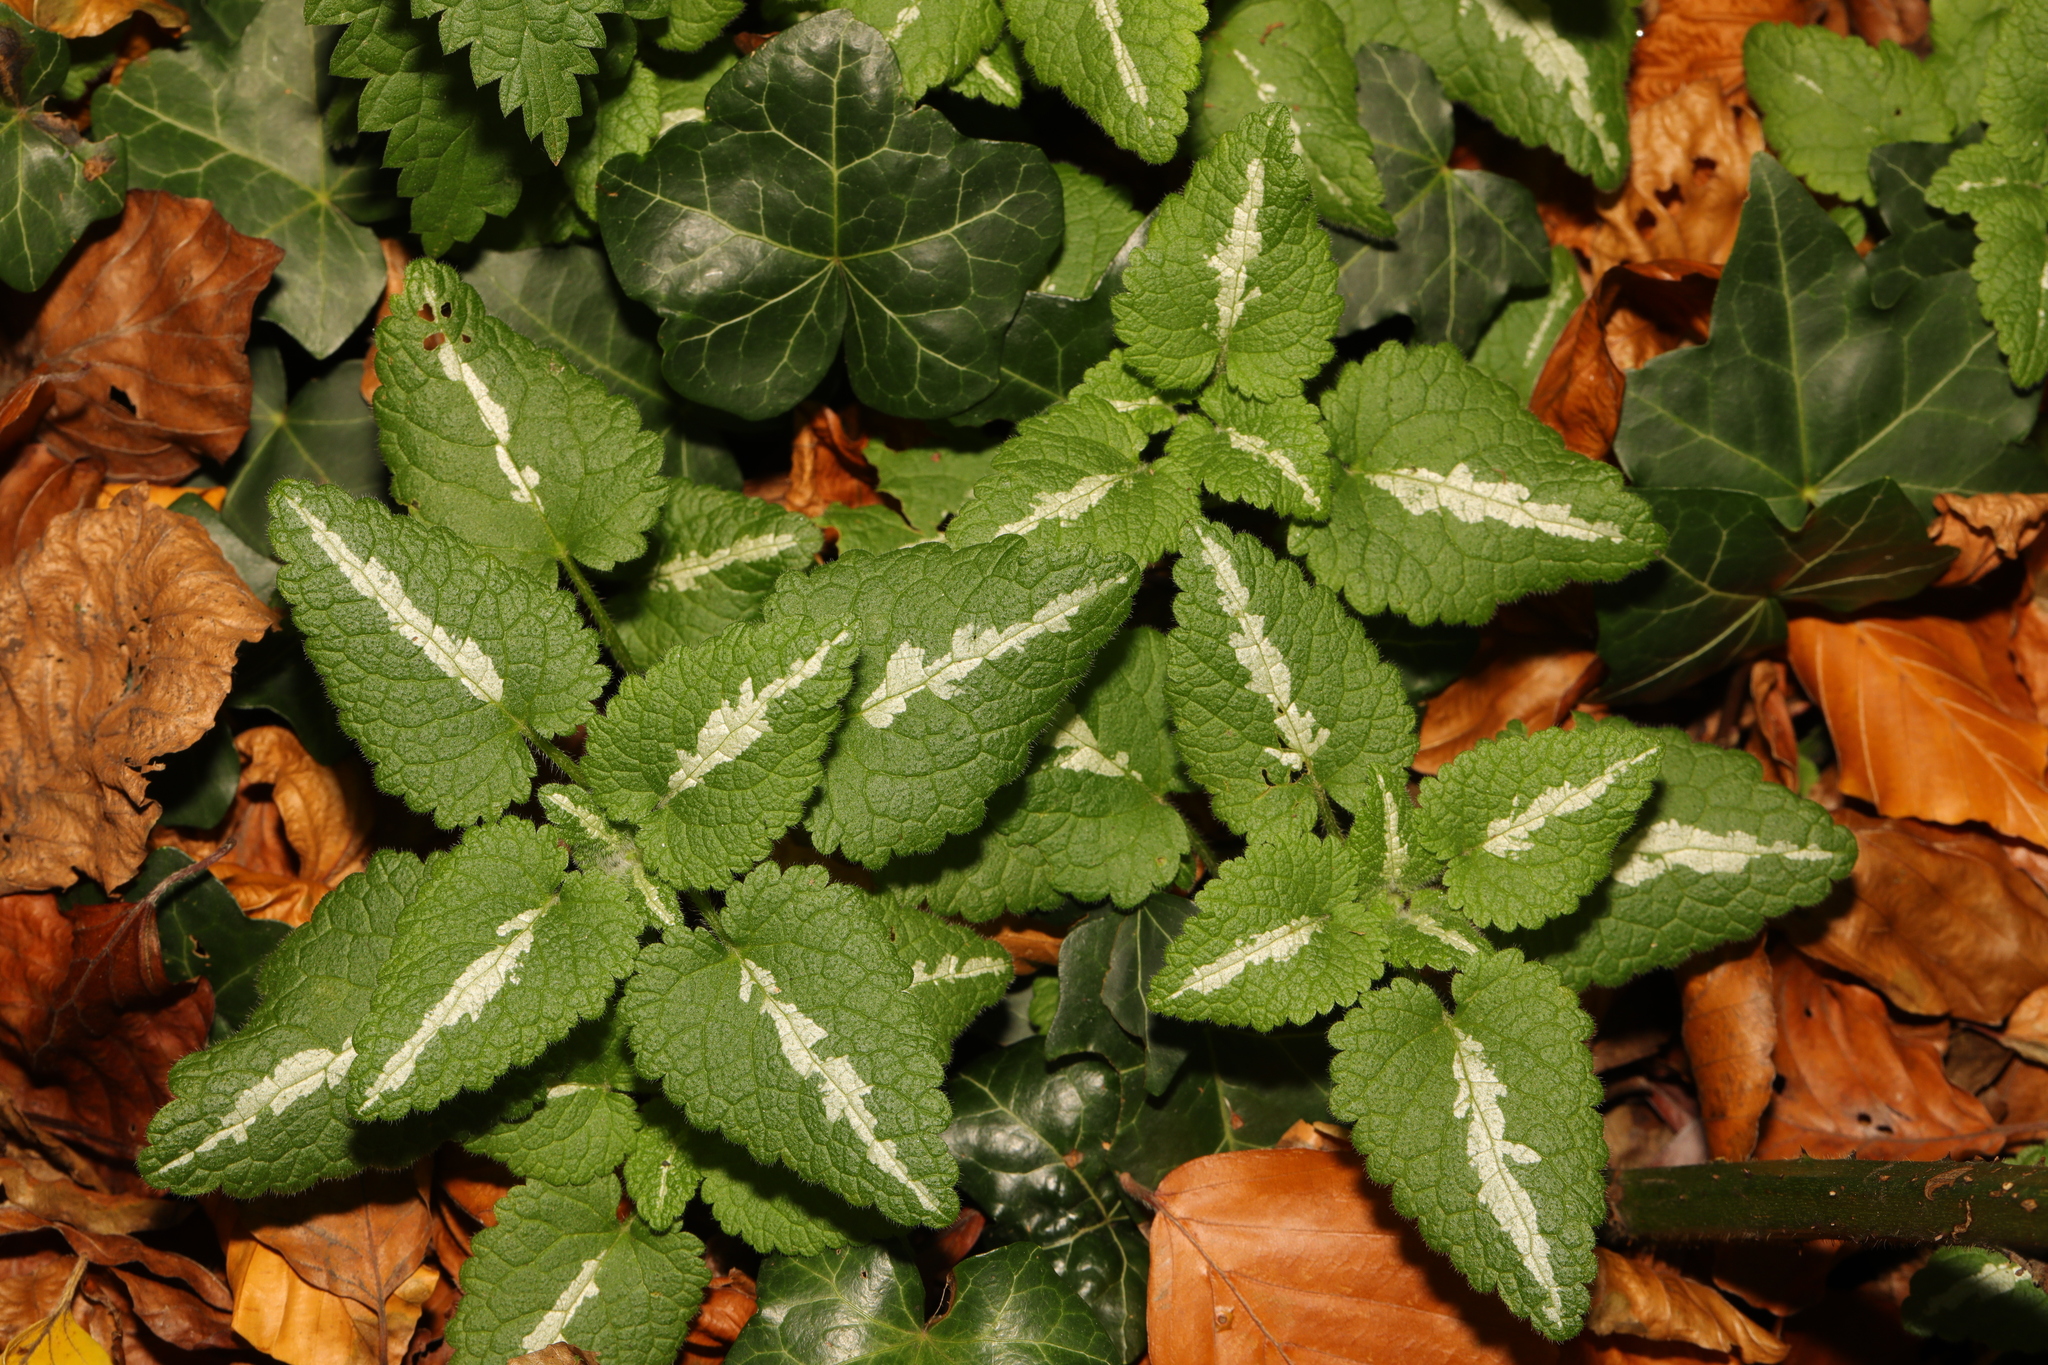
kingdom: Plantae
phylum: Tracheophyta
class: Magnoliopsida
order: Lamiales
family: Lamiaceae
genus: Lamium
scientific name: Lamium maculatum
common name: Spotted dead-nettle
